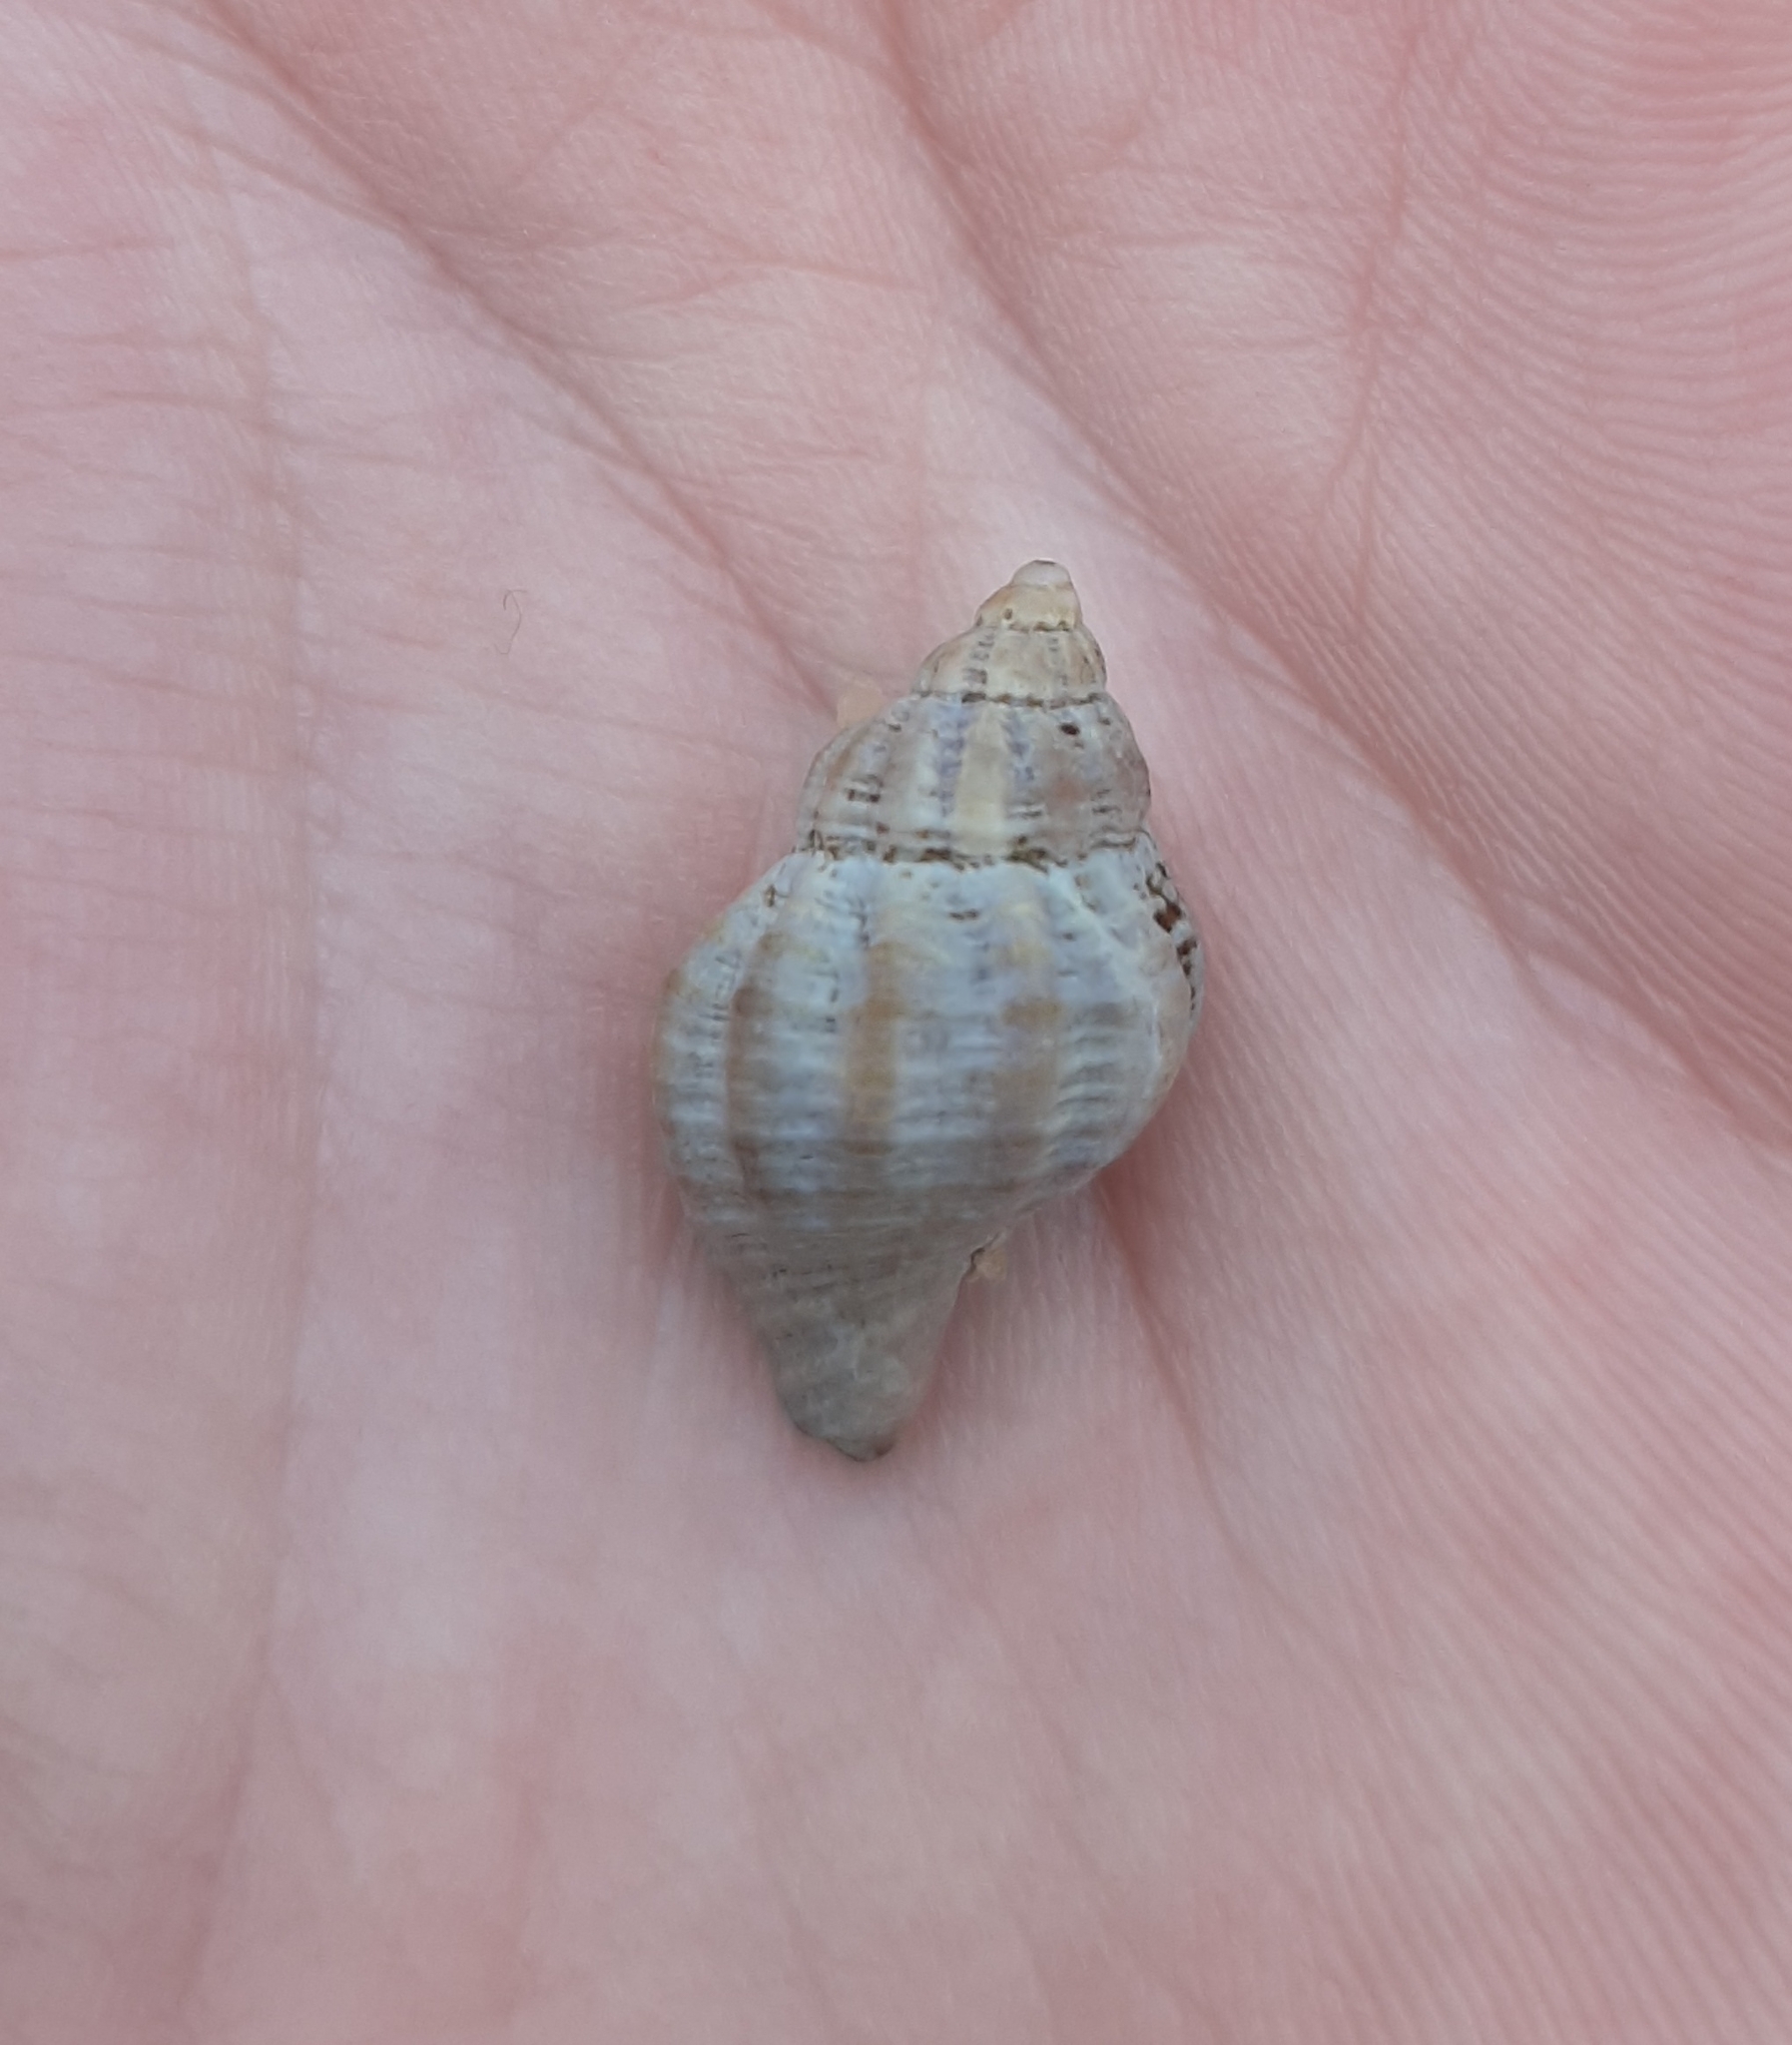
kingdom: Animalia
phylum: Mollusca
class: Gastropoda
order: Neogastropoda
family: Muricidae
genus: Urosalpinx
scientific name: Urosalpinx cinerea
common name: American sting winkle
